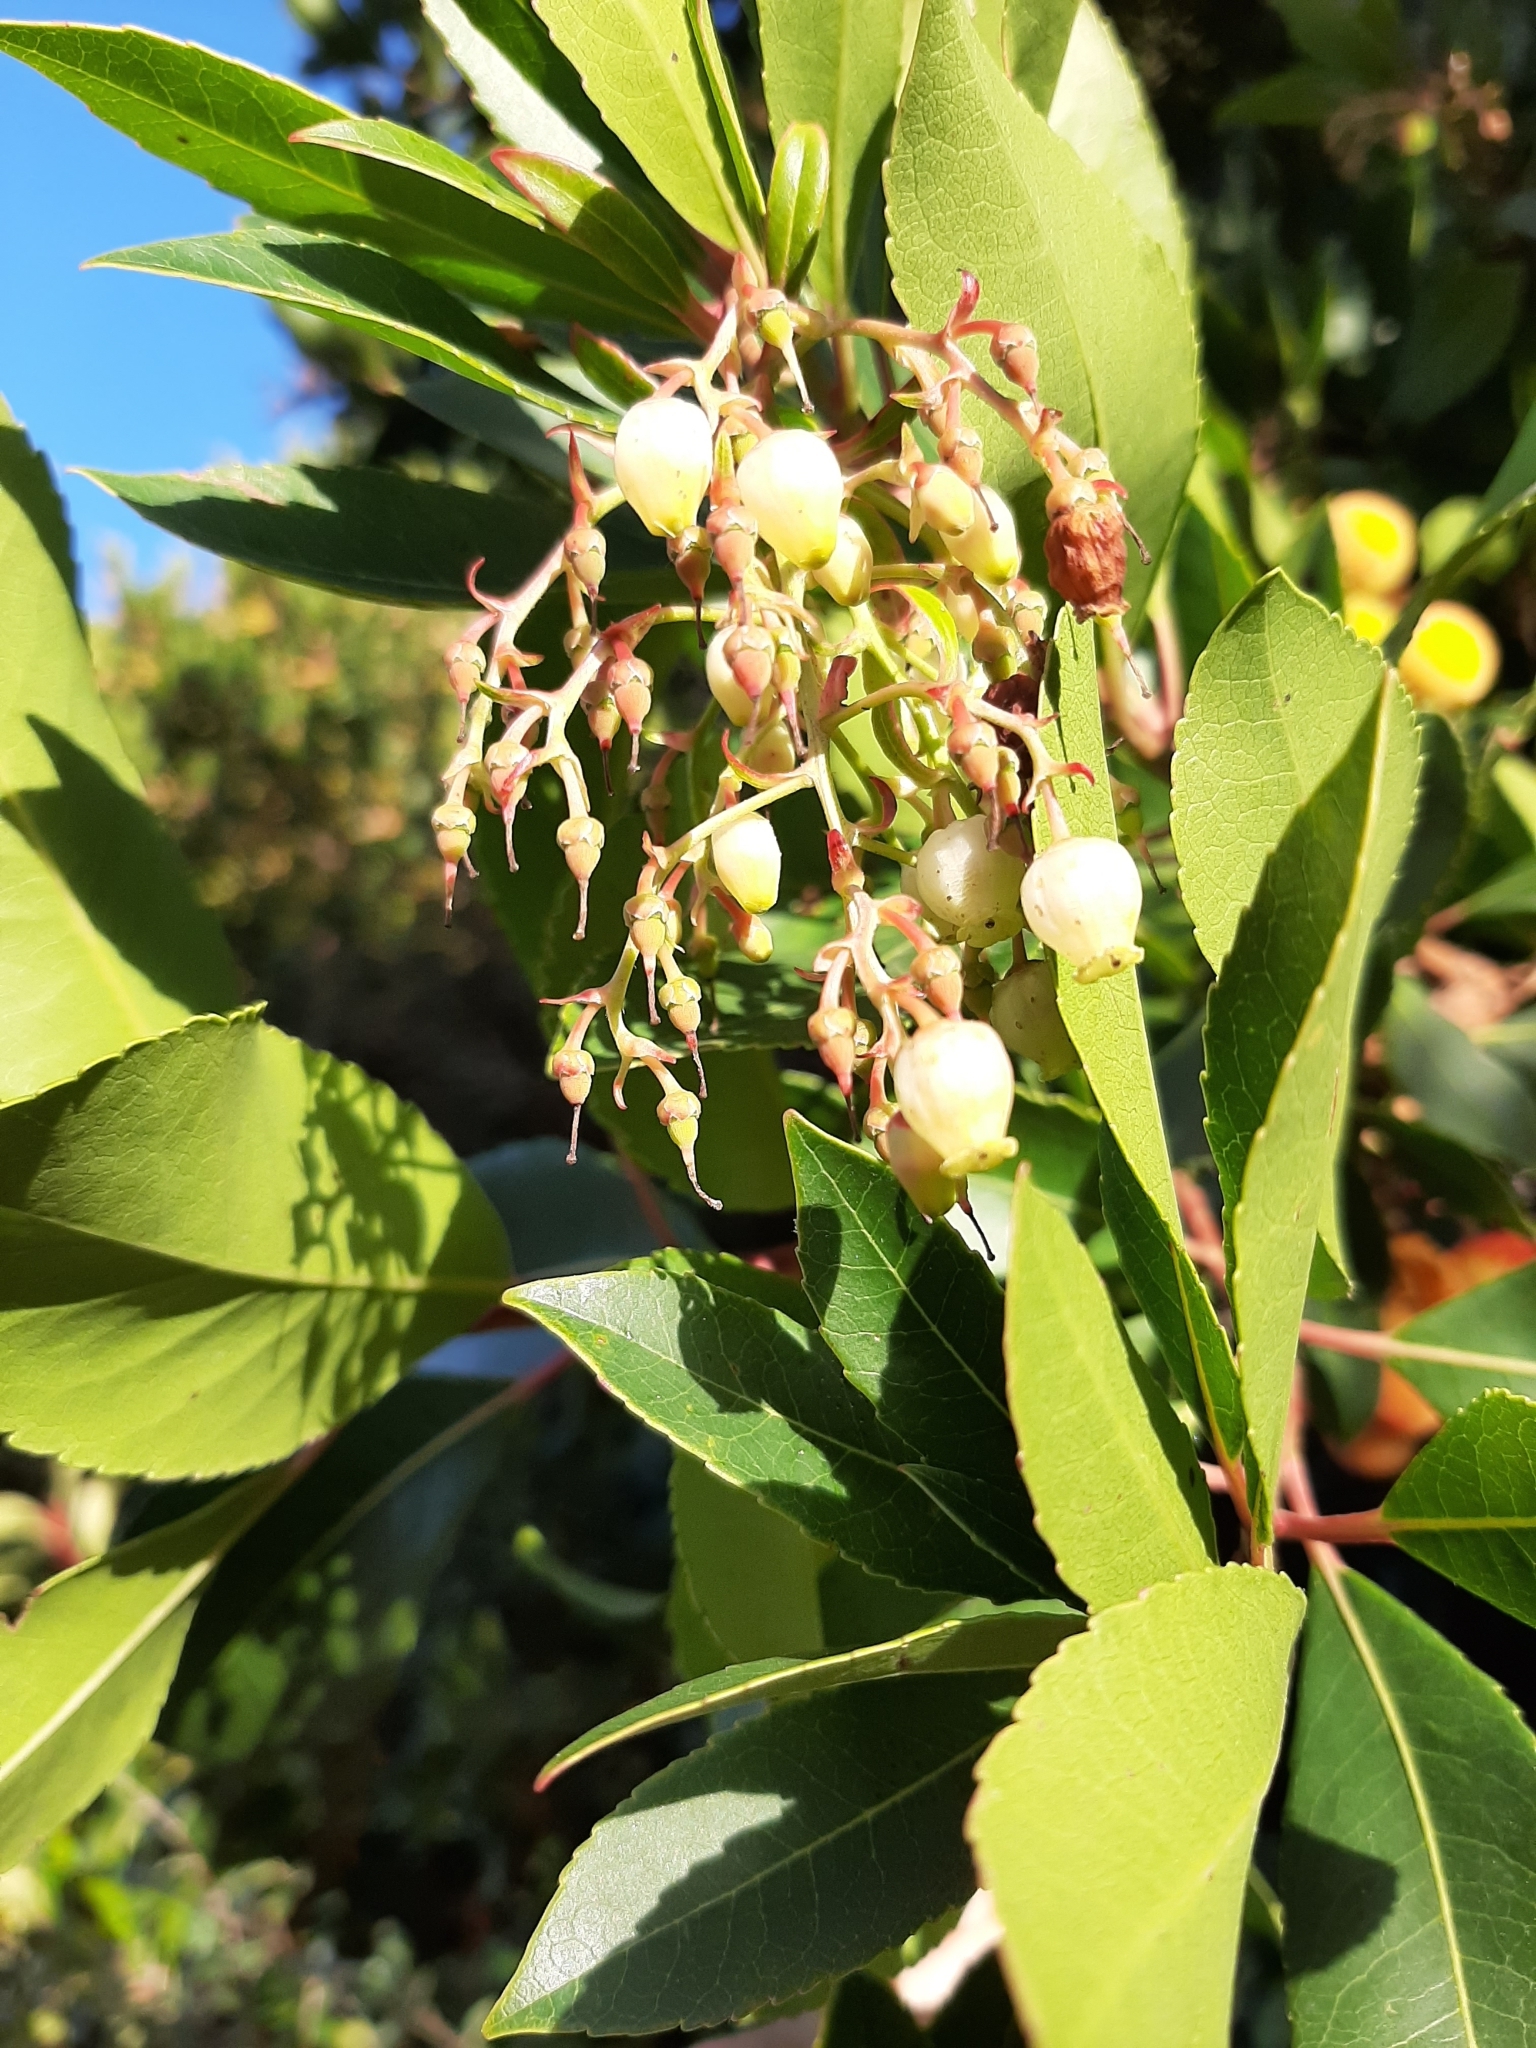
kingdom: Plantae
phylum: Tracheophyta
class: Magnoliopsida
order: Ericales
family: Ericaceae
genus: Arbutus
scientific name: Arbutus unedo
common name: Strawberry-tree
